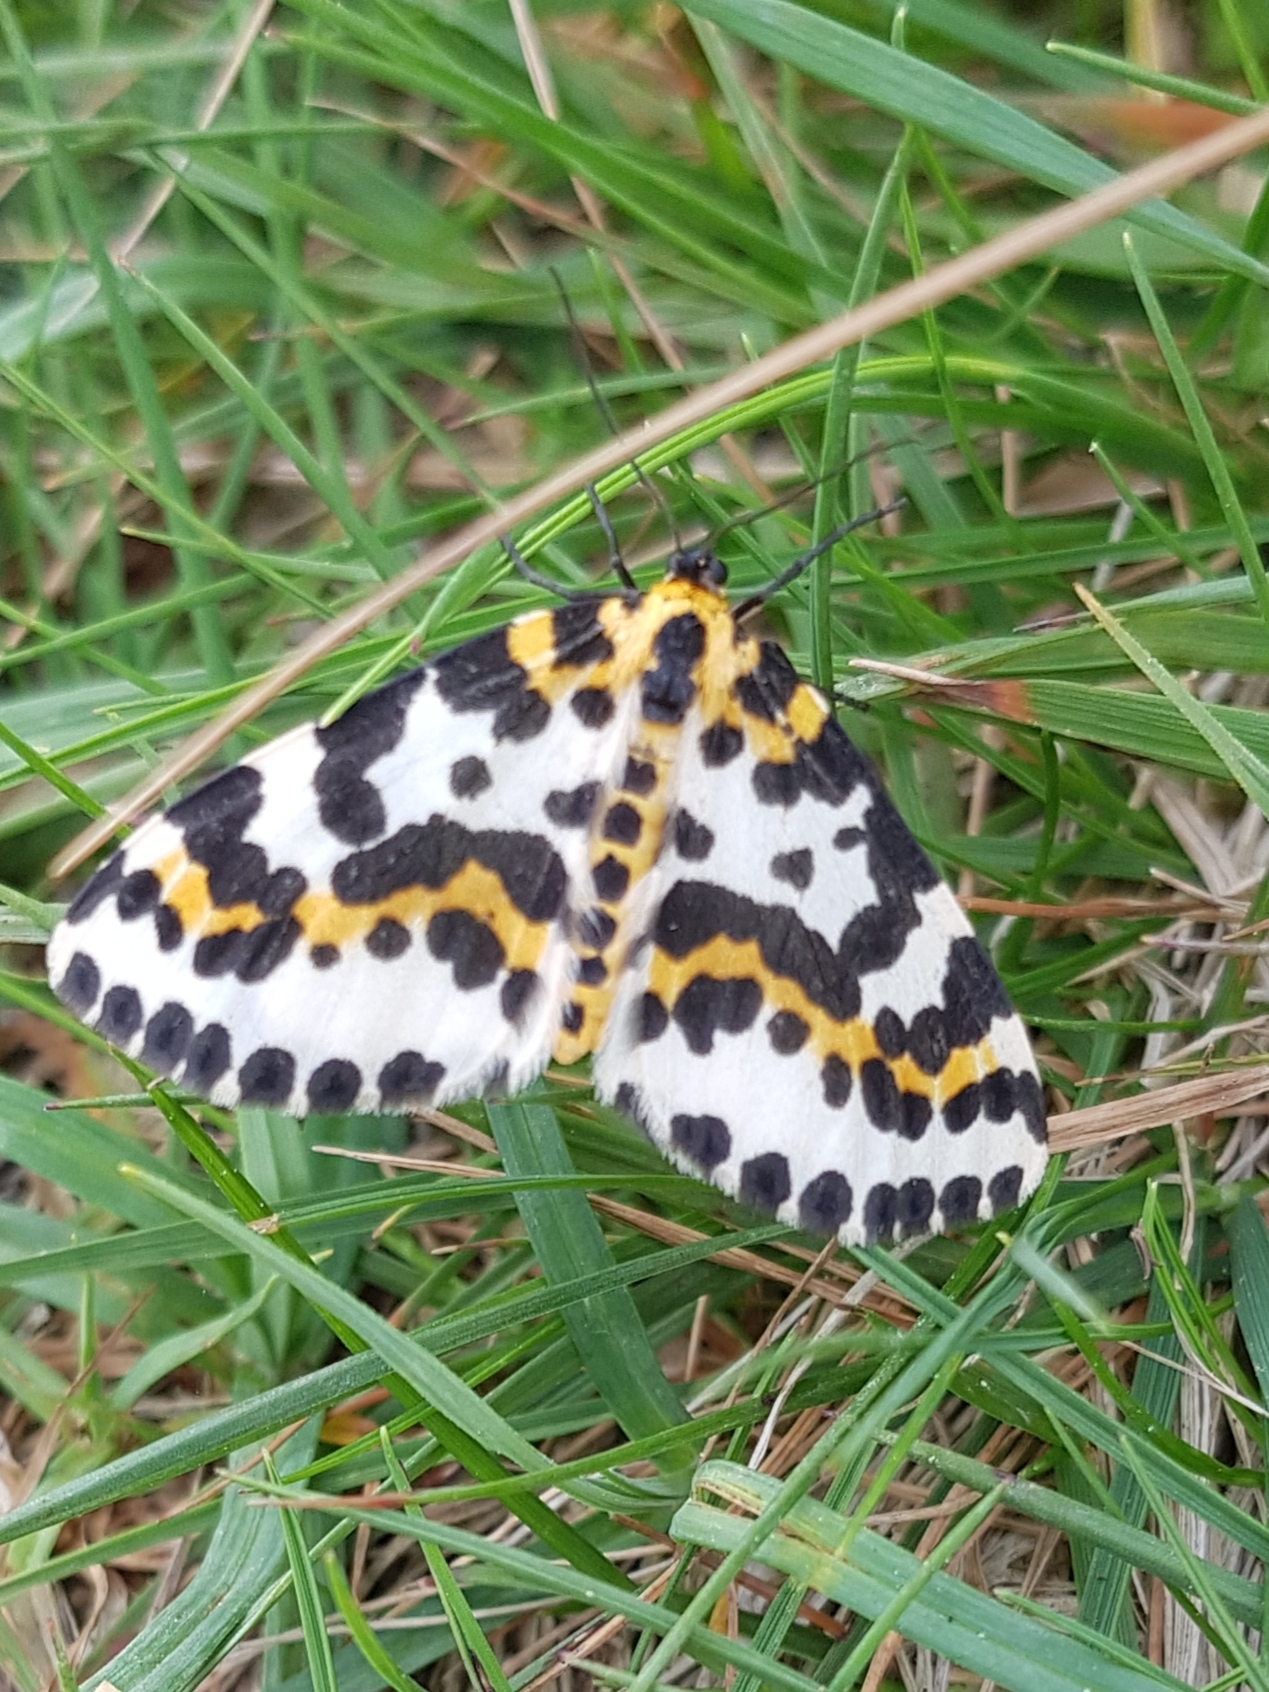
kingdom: Animalia
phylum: Arthropoda
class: Insecta
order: Lepidoptera
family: Geometridae
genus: Abraxas
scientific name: Abraxas grossulariata
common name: Magpie
